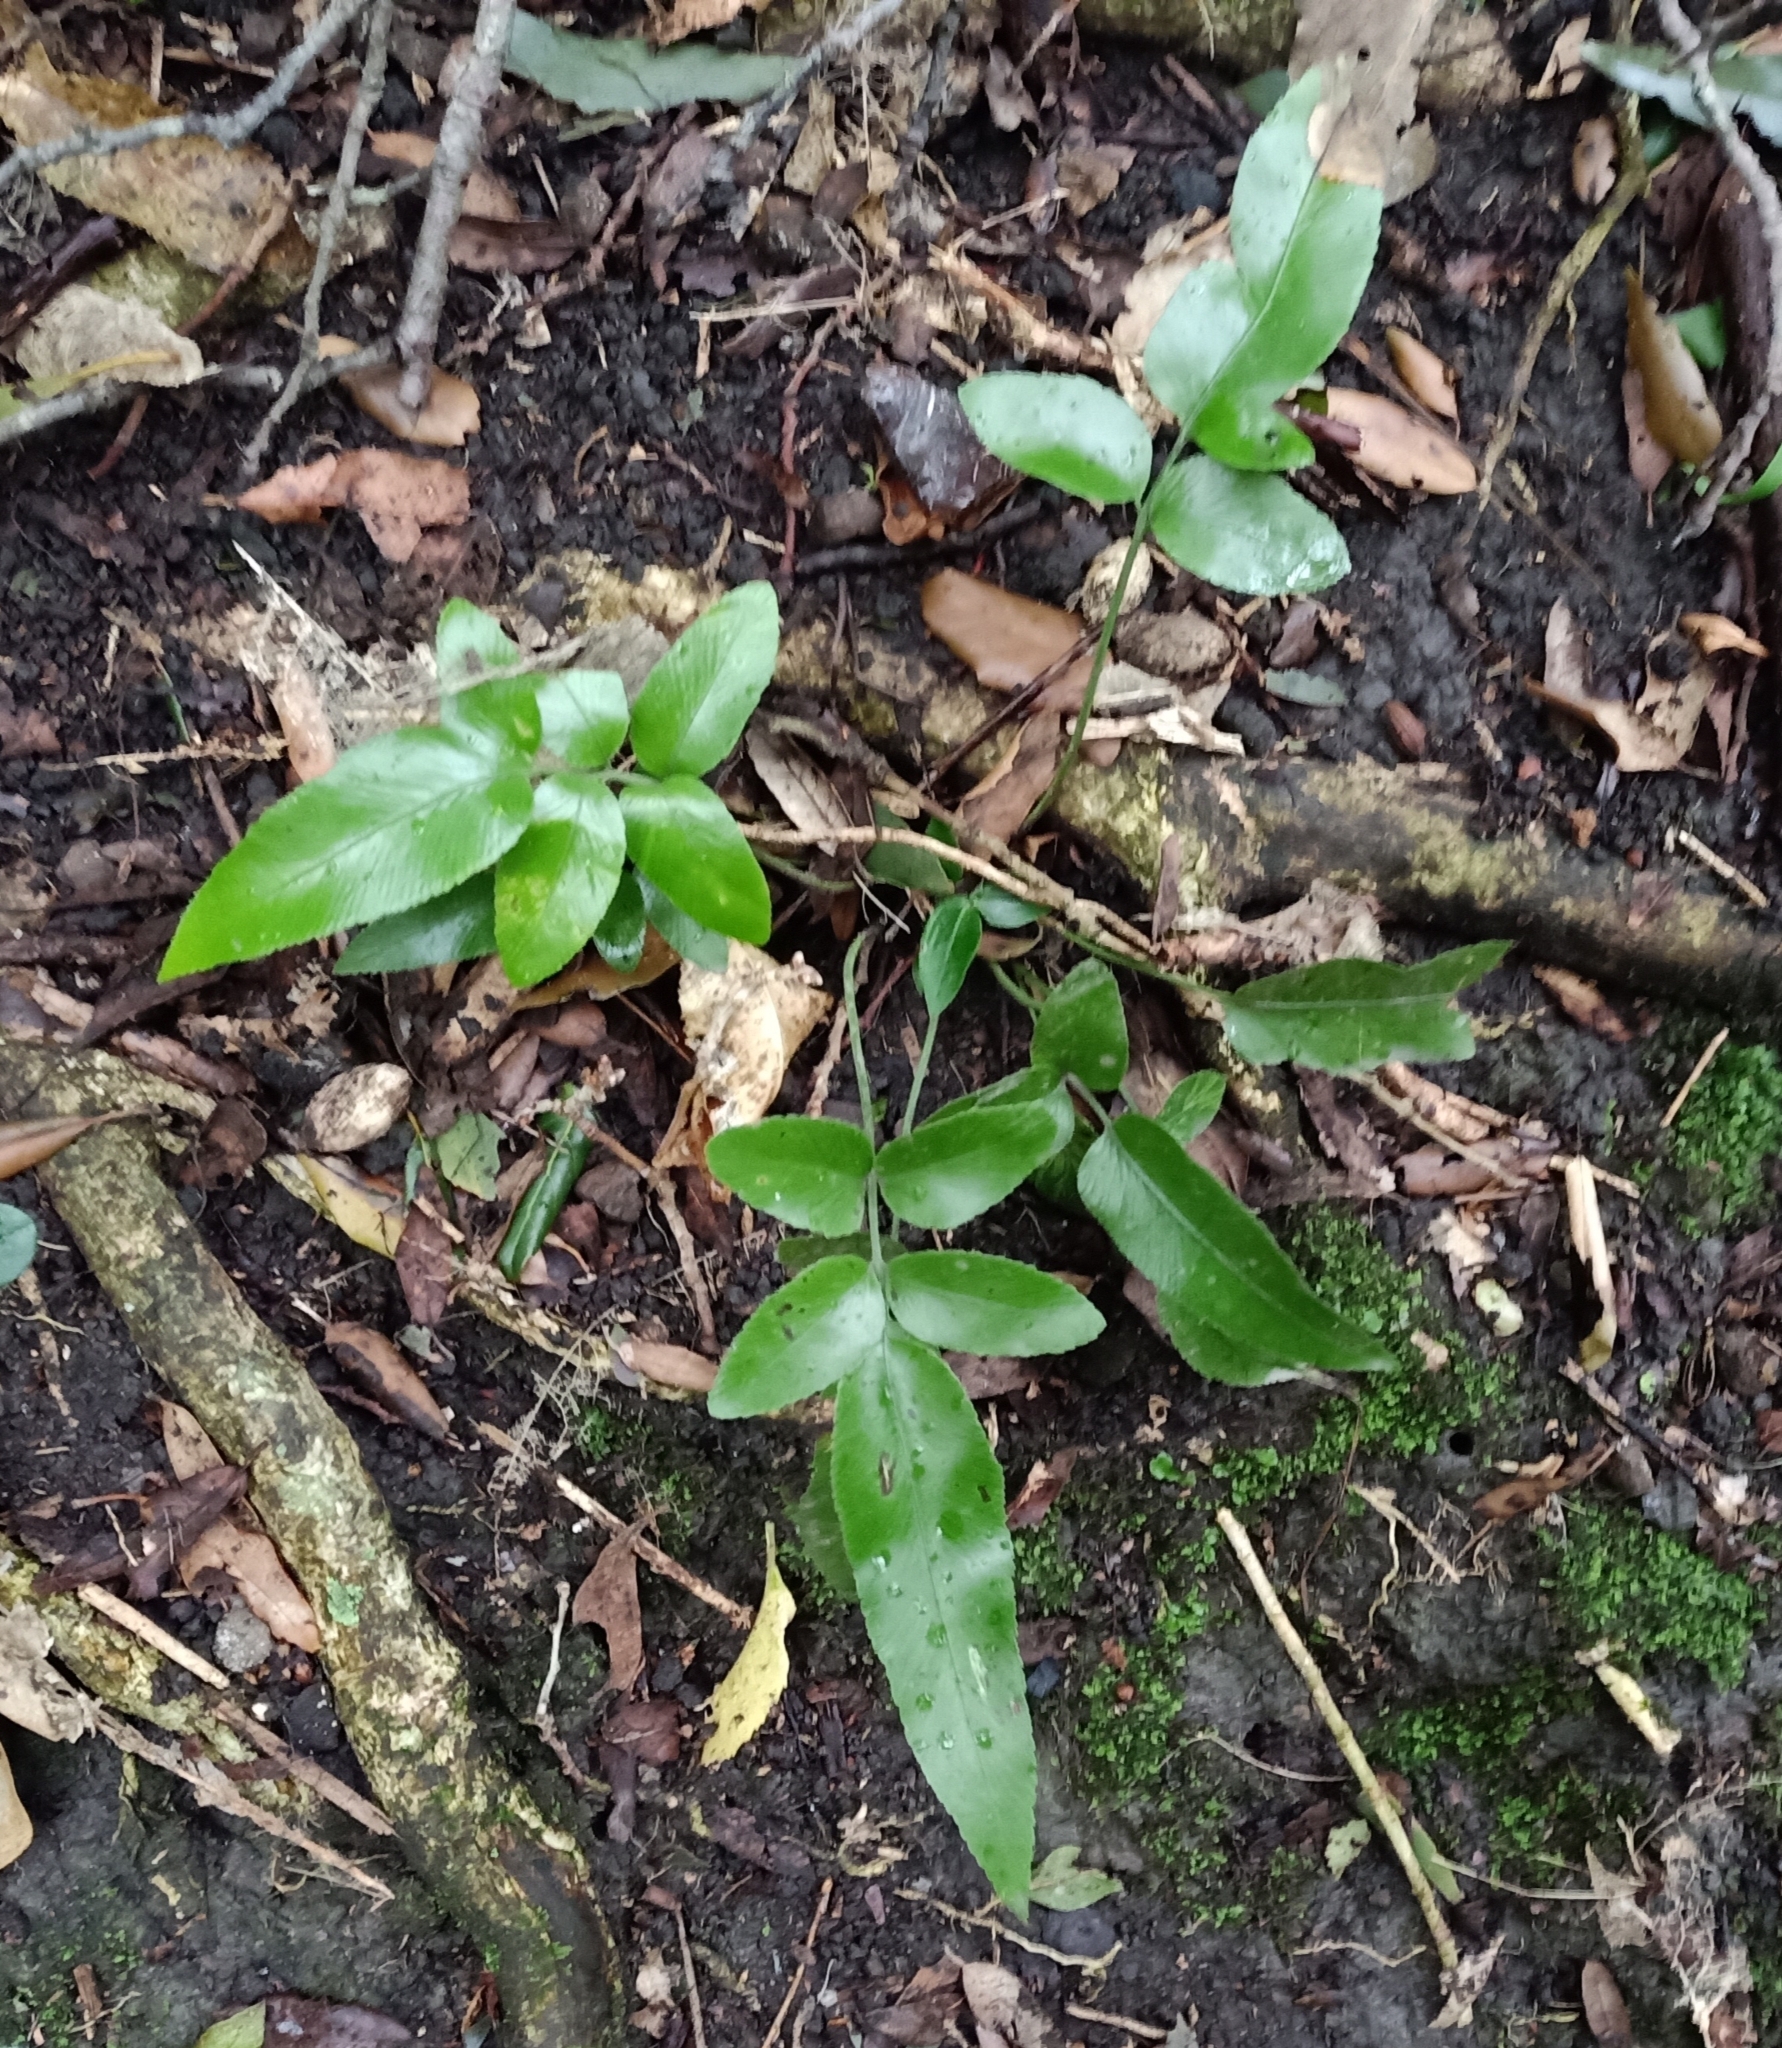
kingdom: Plantae
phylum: Tracheophyta
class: Polypodiopsida
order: Polypodiales
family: Aspleniaceae
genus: Asplenium
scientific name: Asplenium oblongifolium
